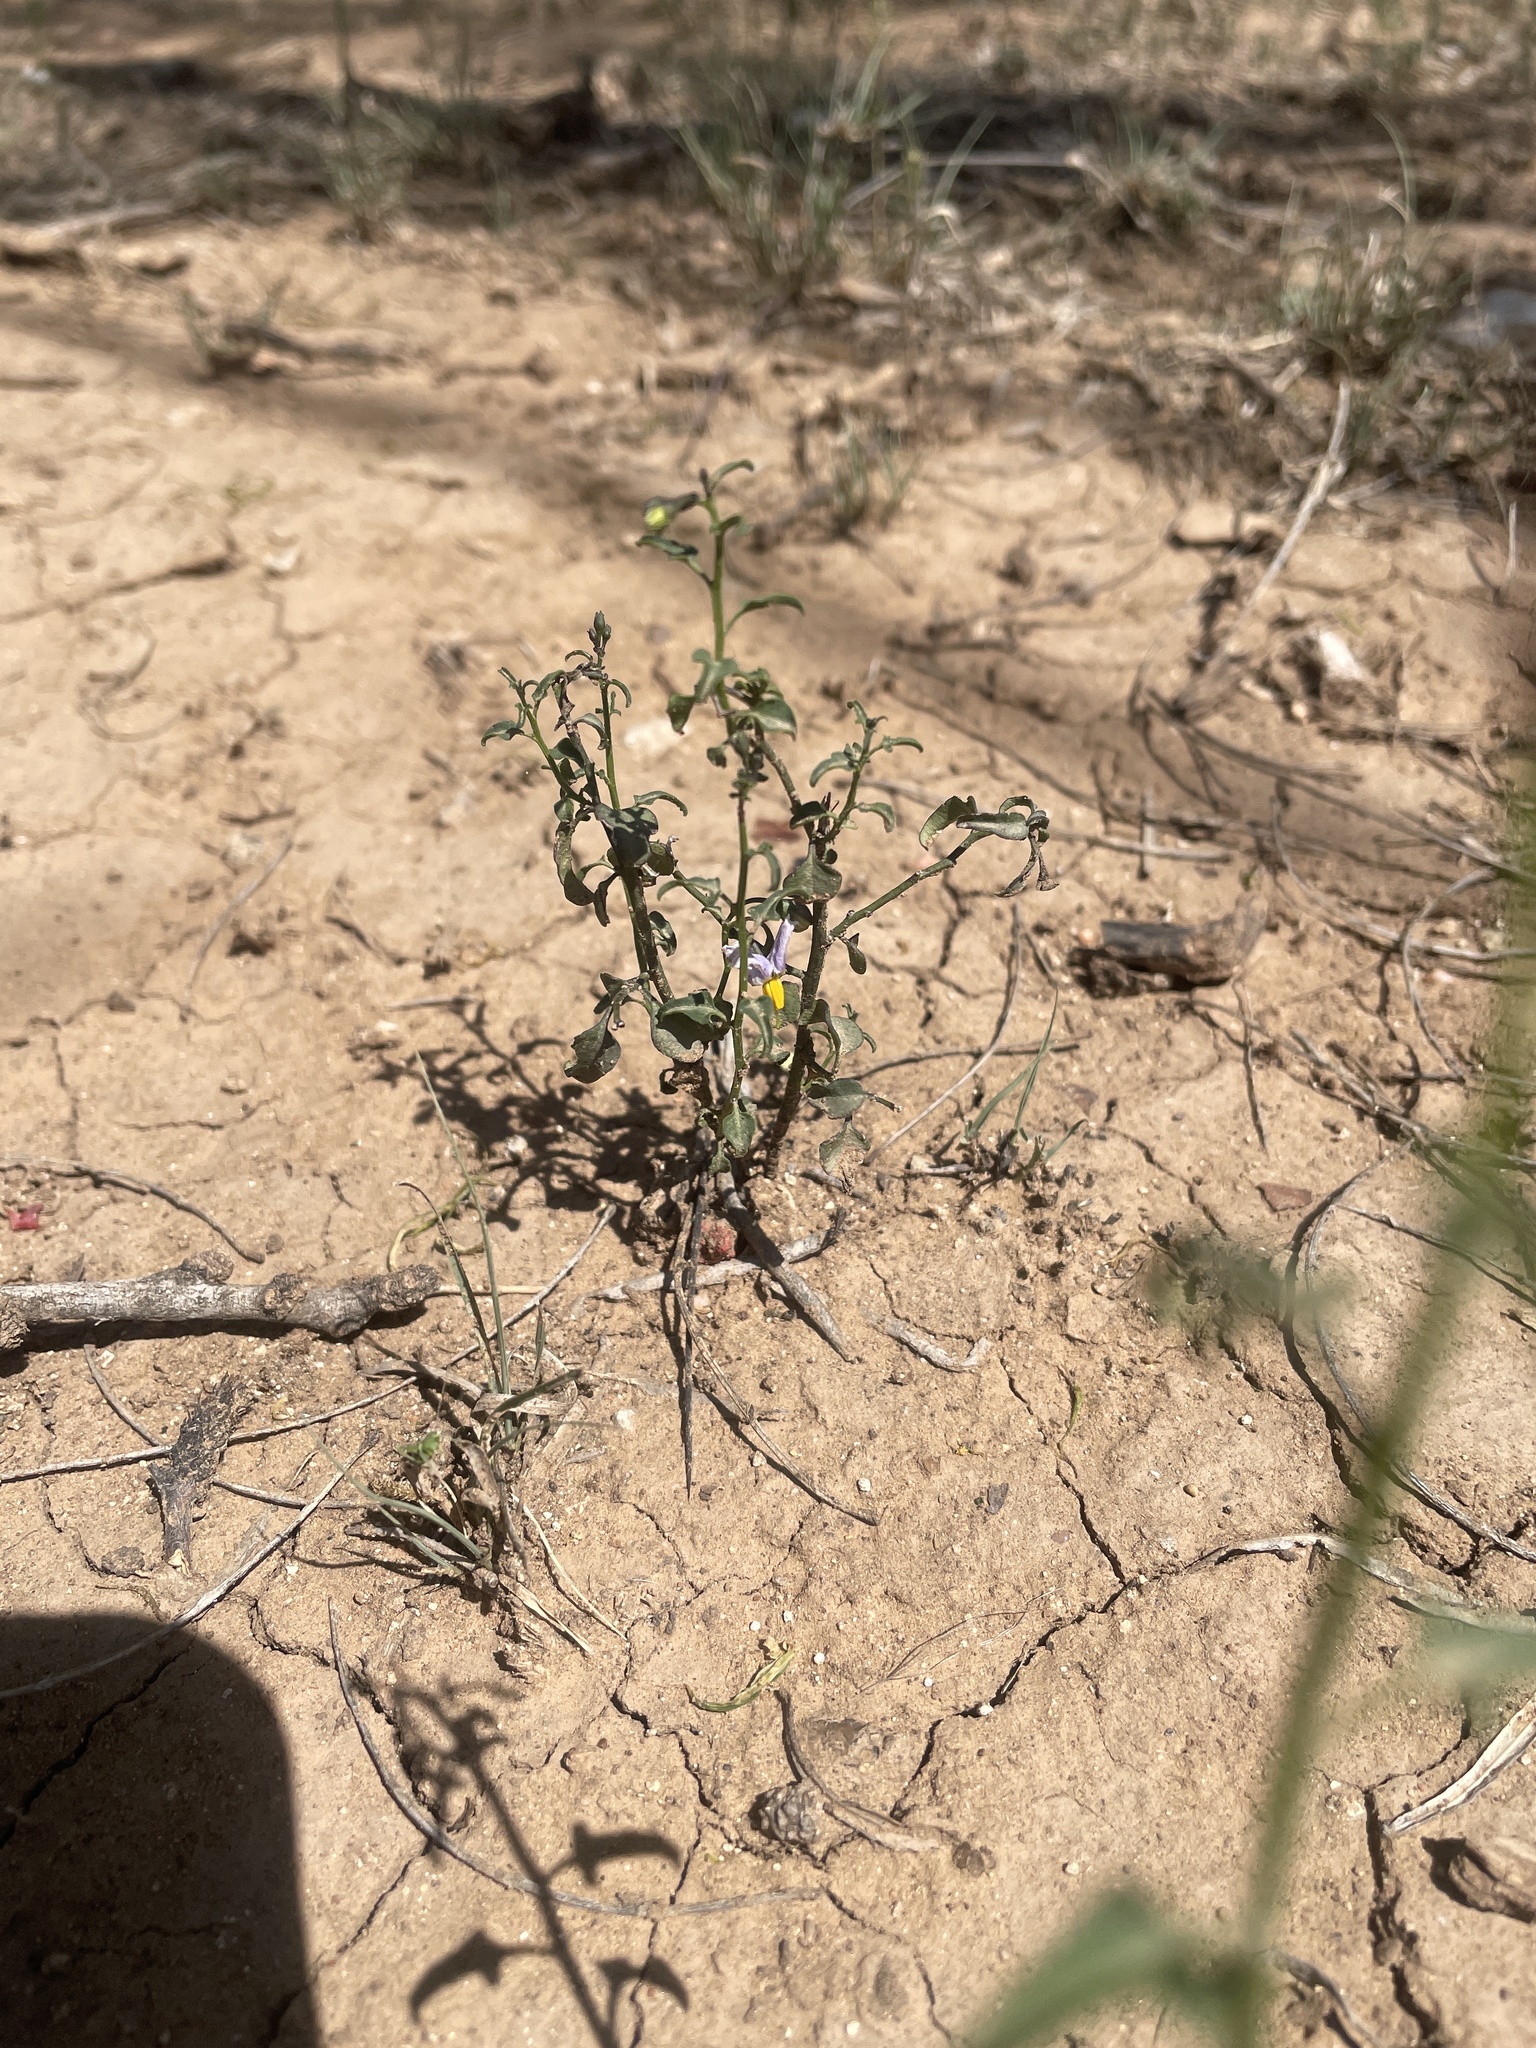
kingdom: Plantae
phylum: Tracheophyta
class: Magnoliopsida
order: Solanales
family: Solanaceae
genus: Solanum
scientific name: Solanum triquetrum
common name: Texas nightshade
